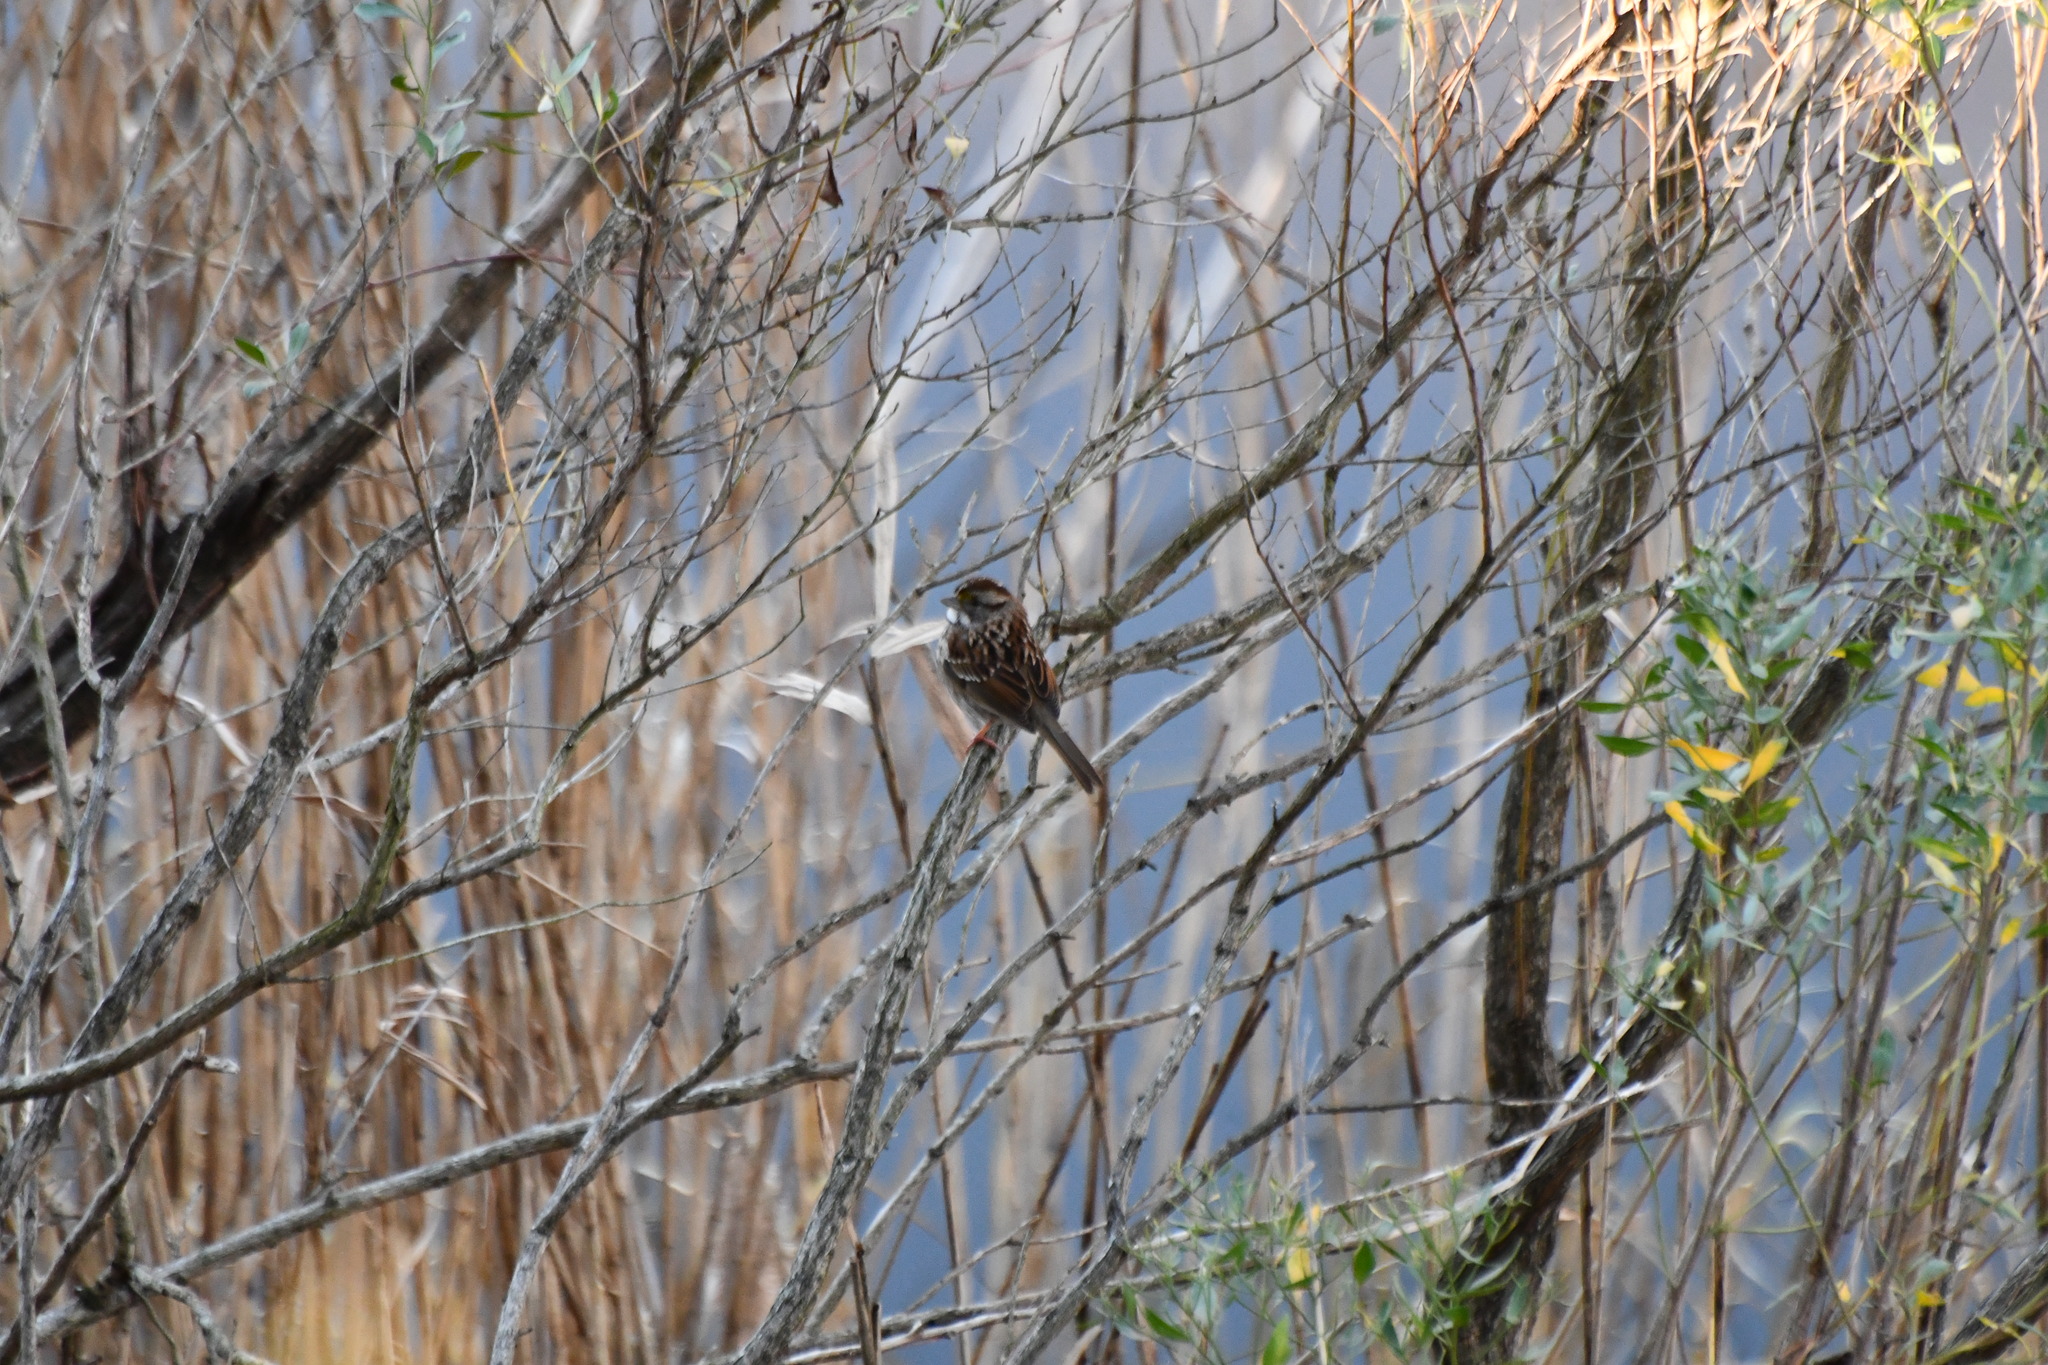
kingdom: Animalia
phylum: Chordata
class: Aves
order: Passeriformes
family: Passerellidae
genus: Zonotrichia
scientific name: Zonotrichia albicollis
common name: White-throated sparrow
